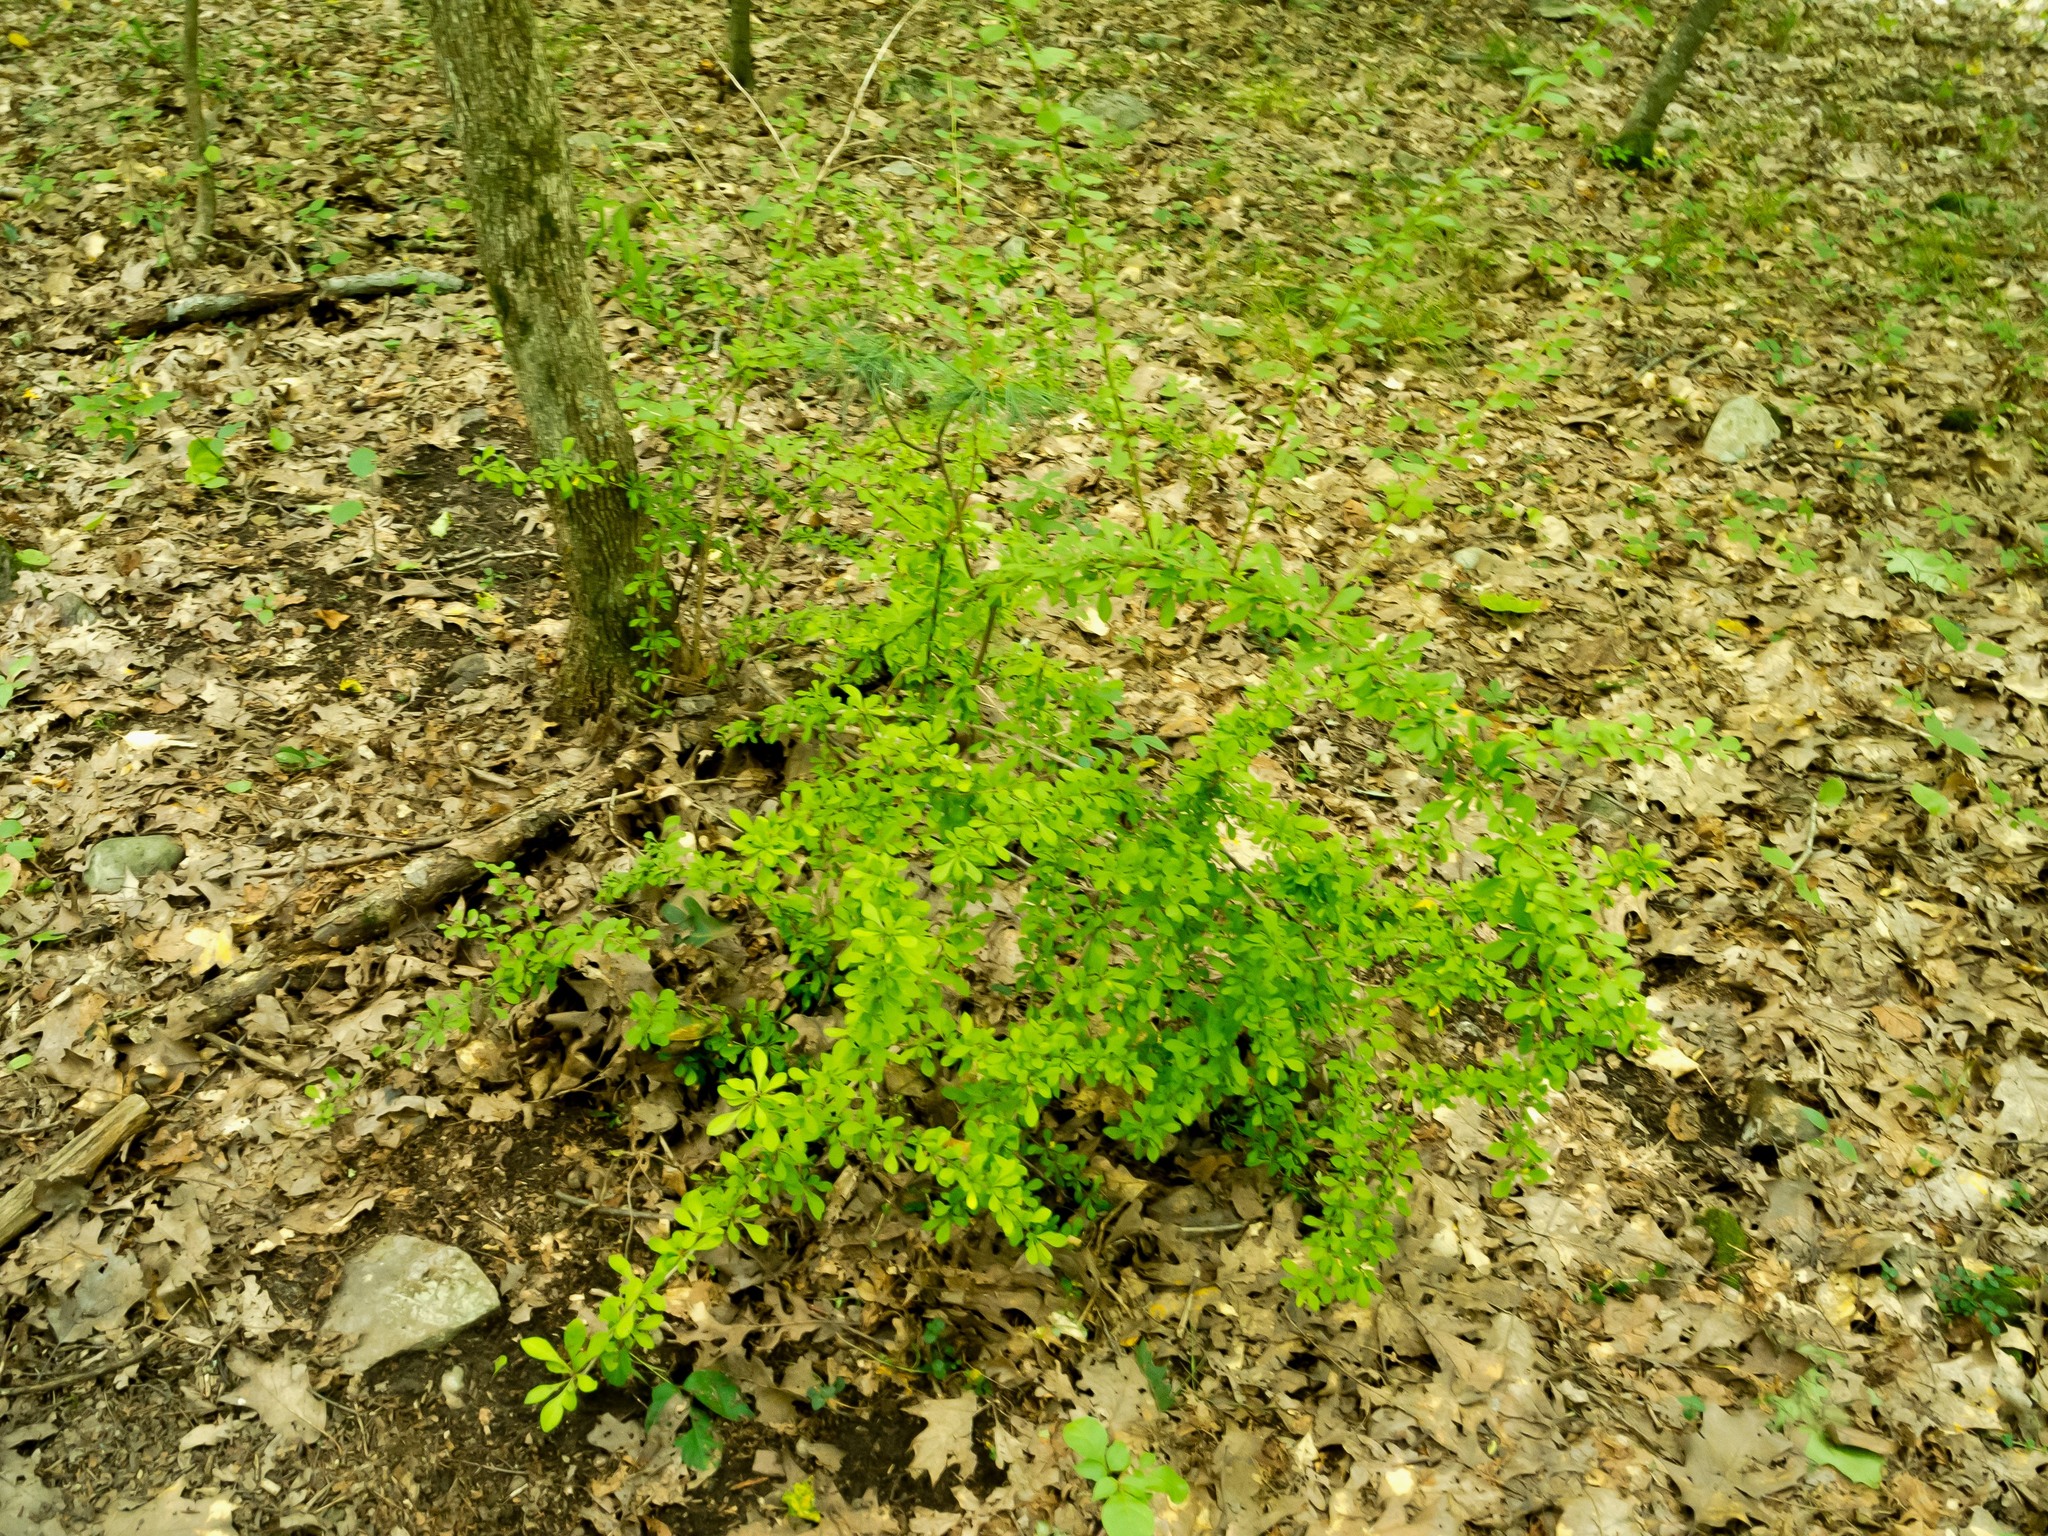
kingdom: Plantae
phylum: Tracheophyta
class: Magnoliopsida
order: Ranunculales
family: Berberidaceae
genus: Berberis
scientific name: Berberis thunbergii
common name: Japanese barberry
